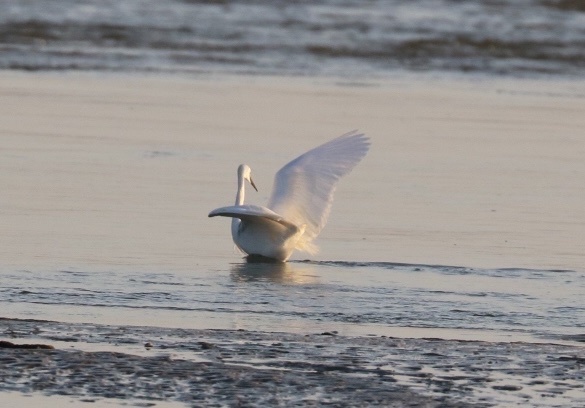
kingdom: Animalia
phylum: Chordata
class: Aves
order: Pelecaniformes
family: Ardeidae
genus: Egretta
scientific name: Egretta garzetta
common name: Little egret
